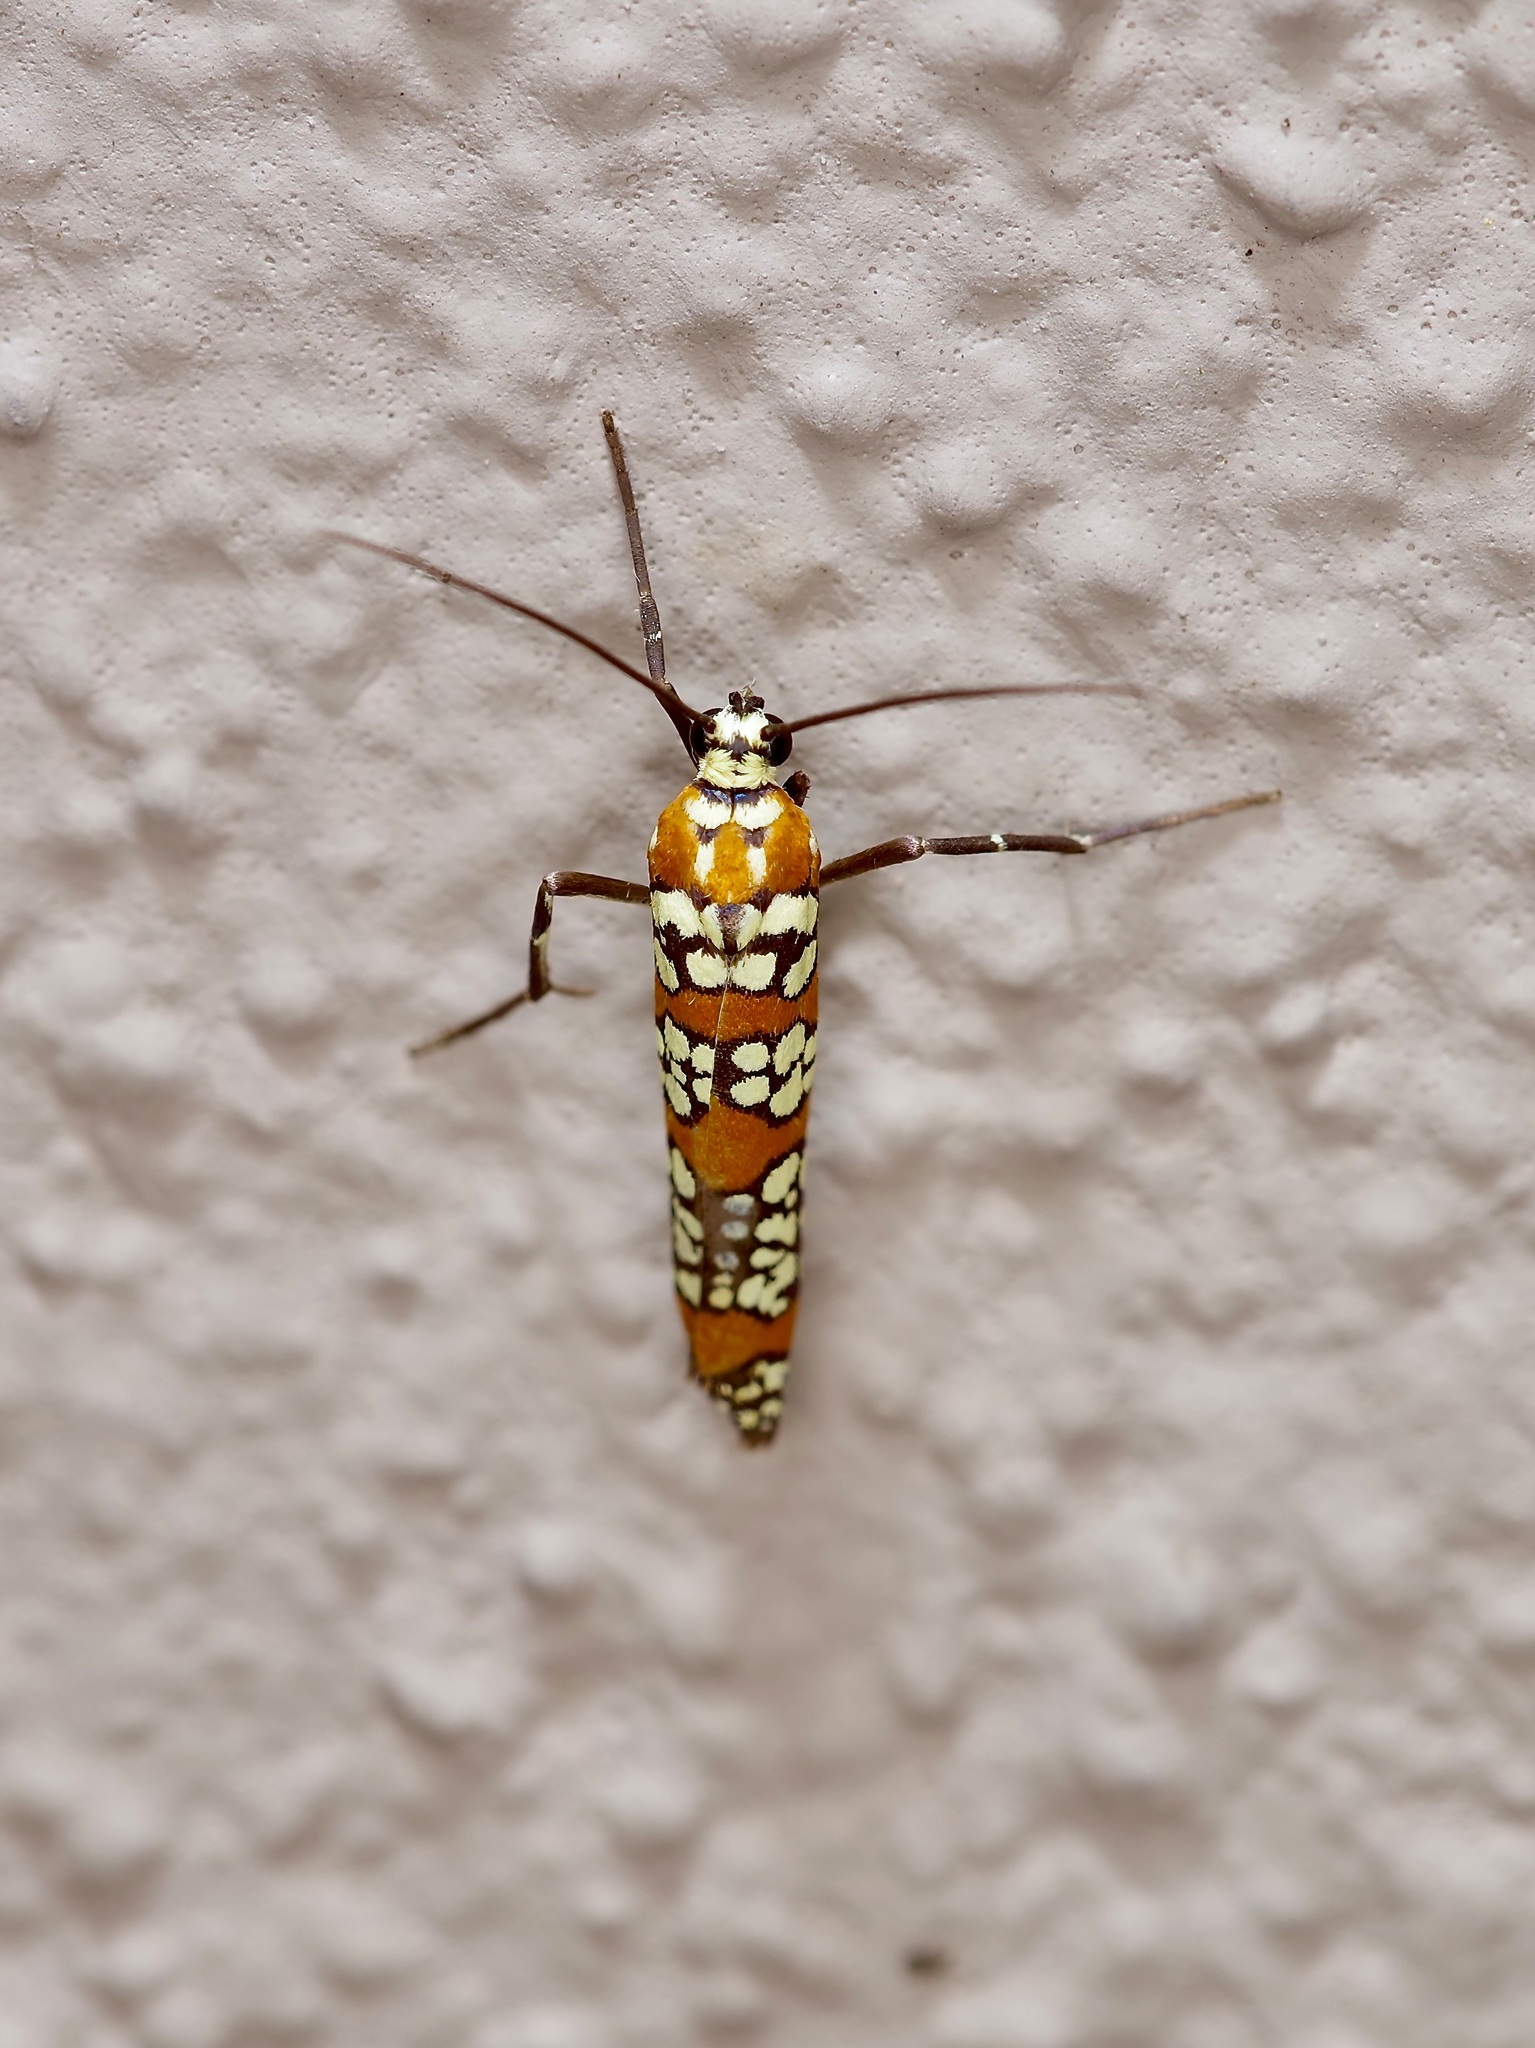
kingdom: Animalia
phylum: Arthropoda
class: Insecta
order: Lepidoptera
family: Attevidae
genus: Atteva
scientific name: Atteva punctella
